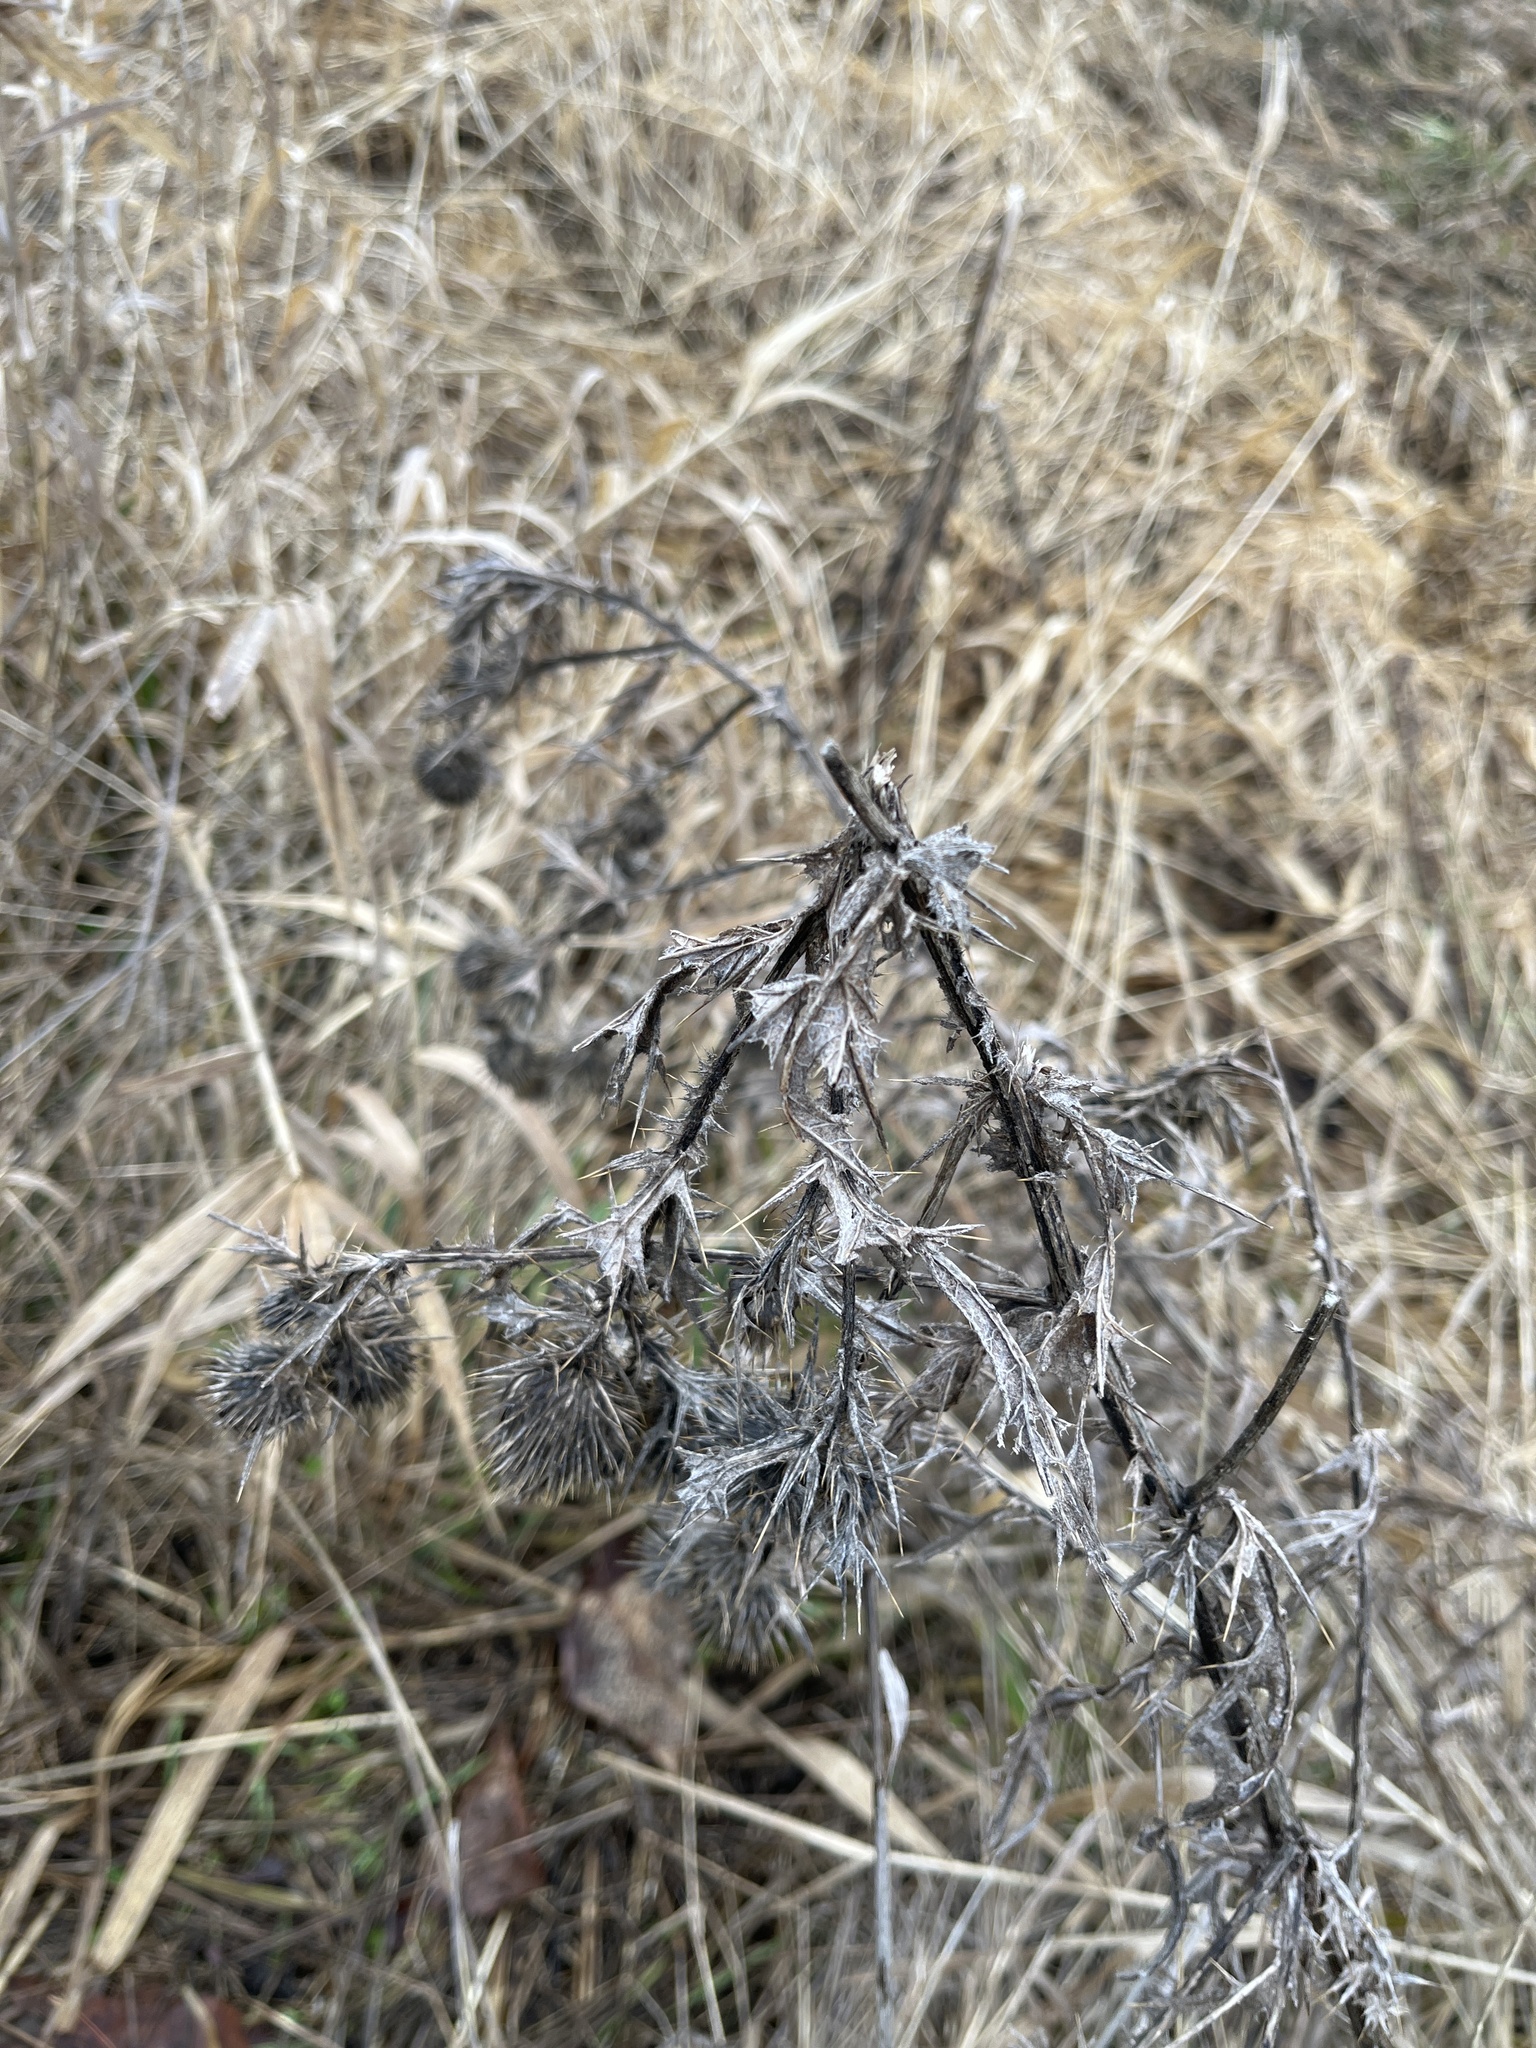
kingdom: Plantae
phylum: Tracheophyta
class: Magnoliopsida
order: Asterales
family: Asteraceae
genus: Cirsium
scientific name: Cirsium vulgare
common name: Bull thistle
